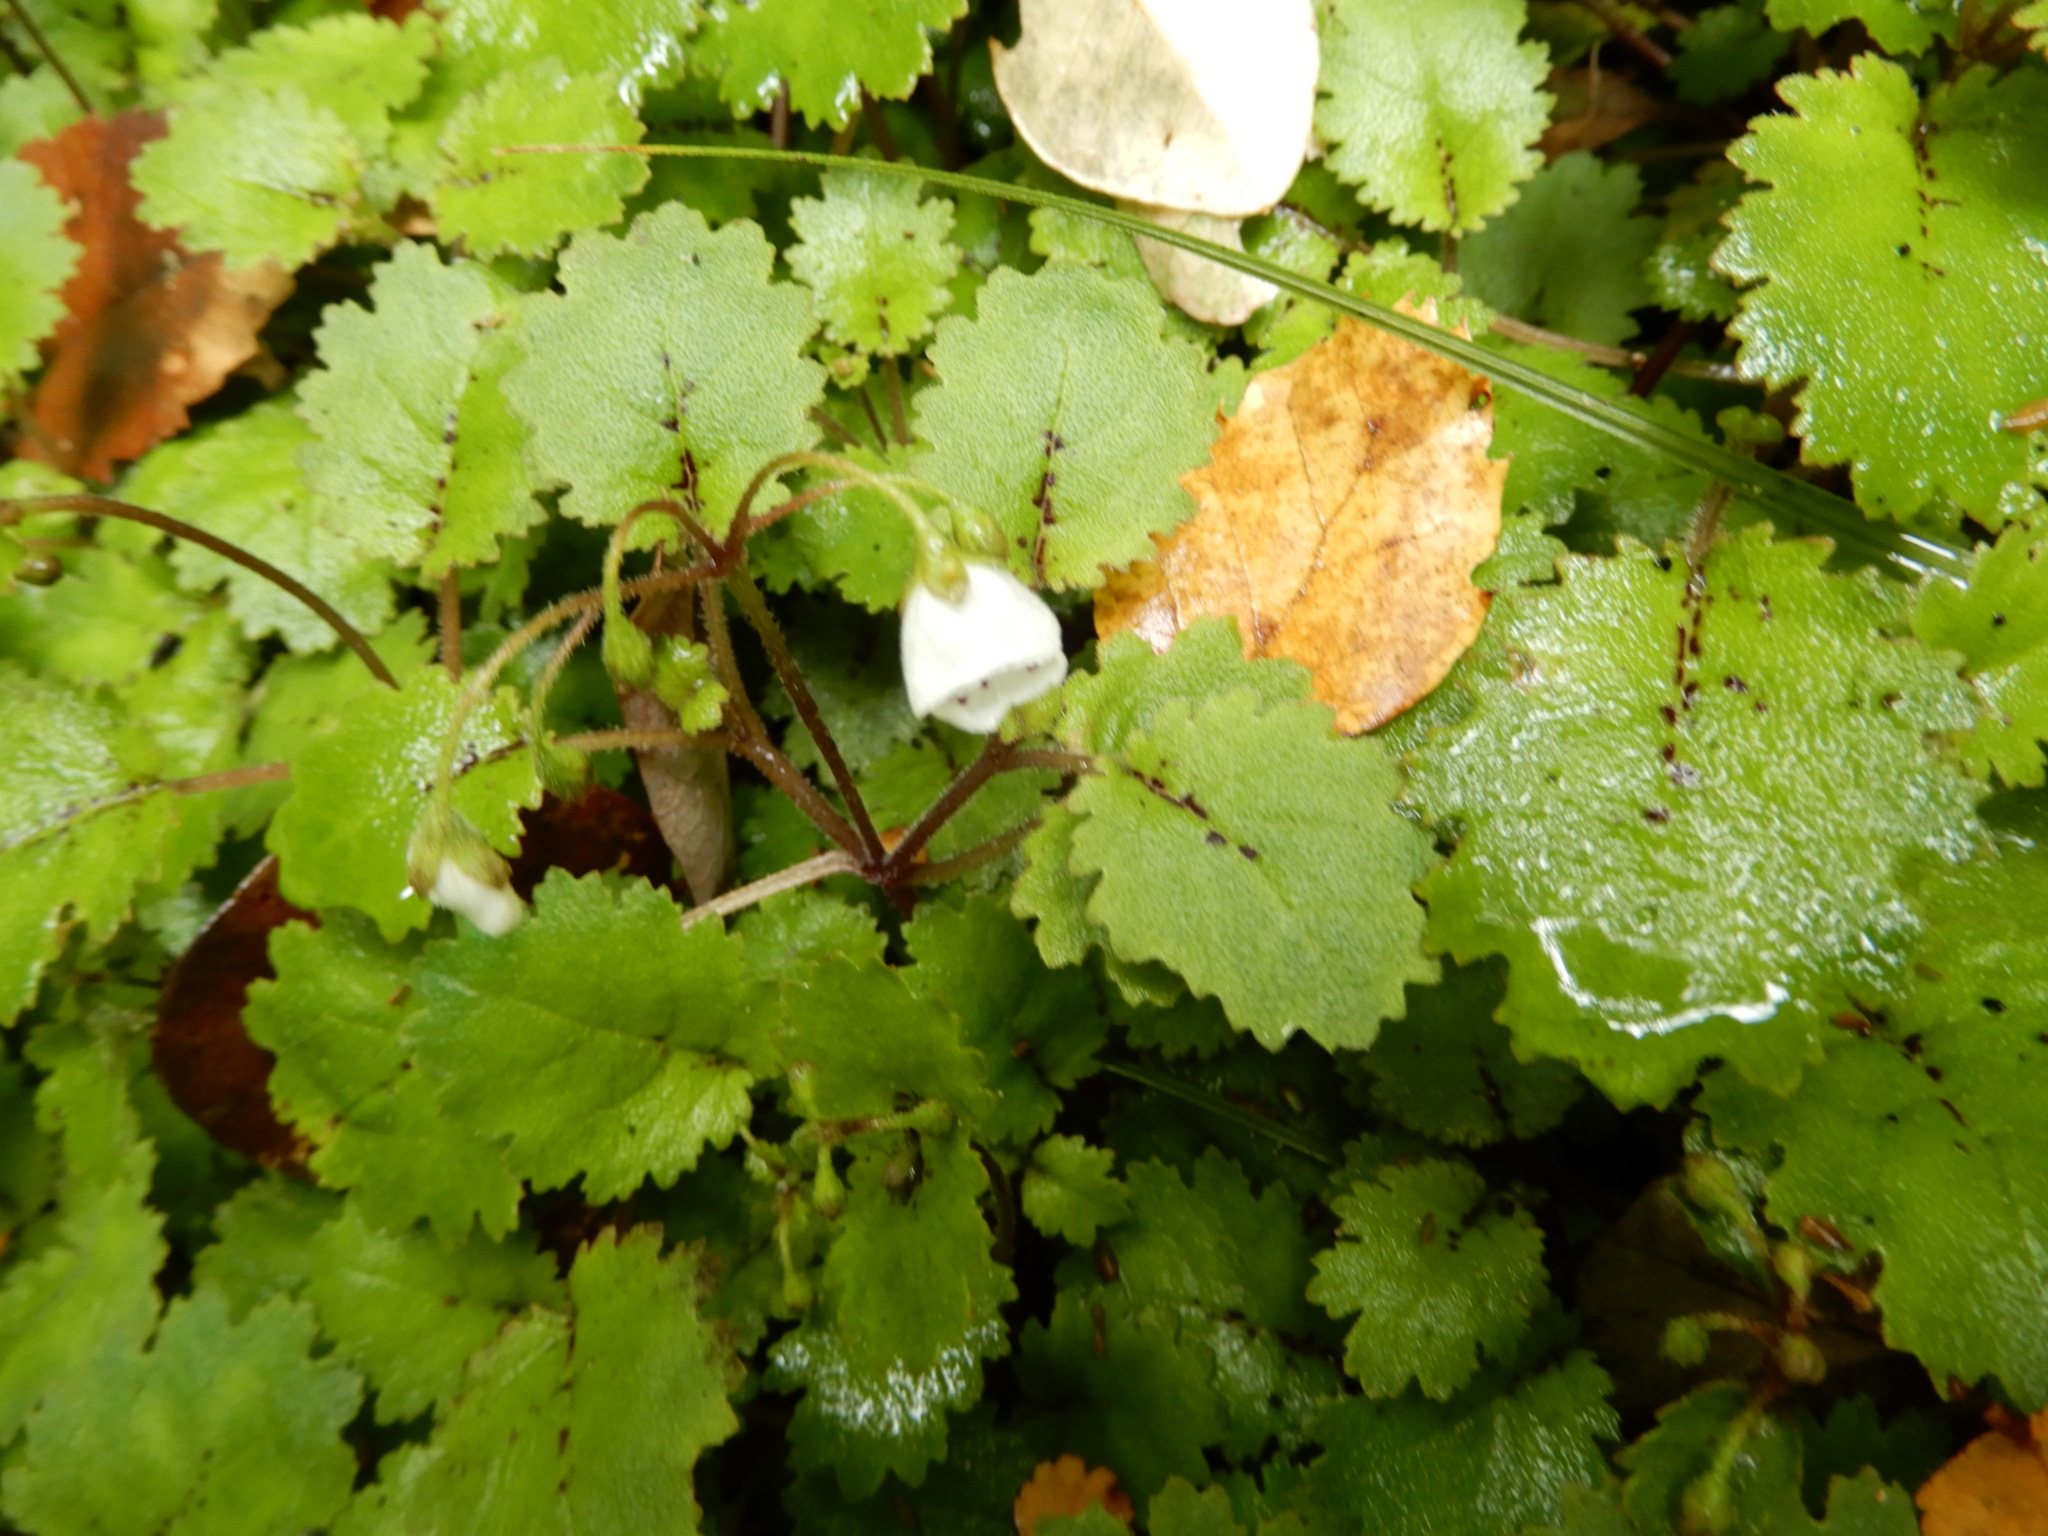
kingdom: Plantae
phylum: Tracheophyta
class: Magnoliopsida
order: Lamiales
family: Calceolariaceae
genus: Jovellana
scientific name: Jovellana repens
